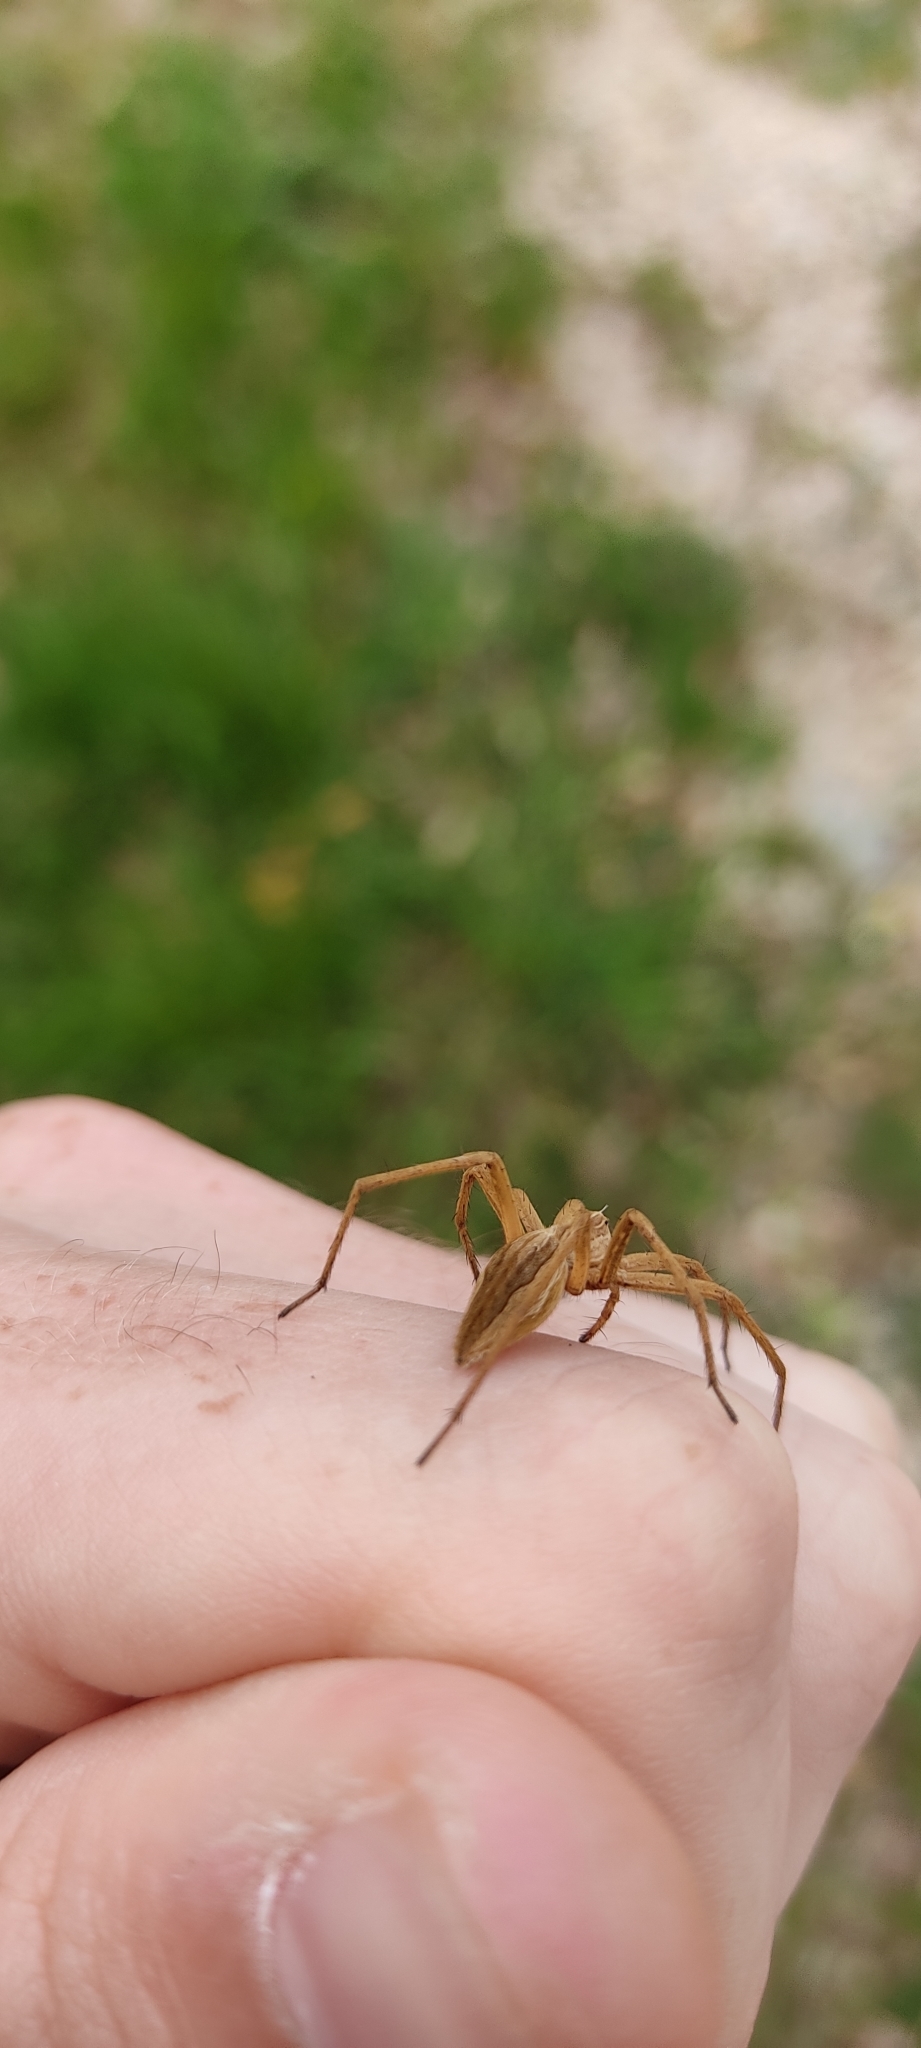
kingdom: Animalia
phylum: Arthropoda
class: Arachnida
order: Araneae
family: Pisauridae
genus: Pisaura
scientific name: Pisaura
